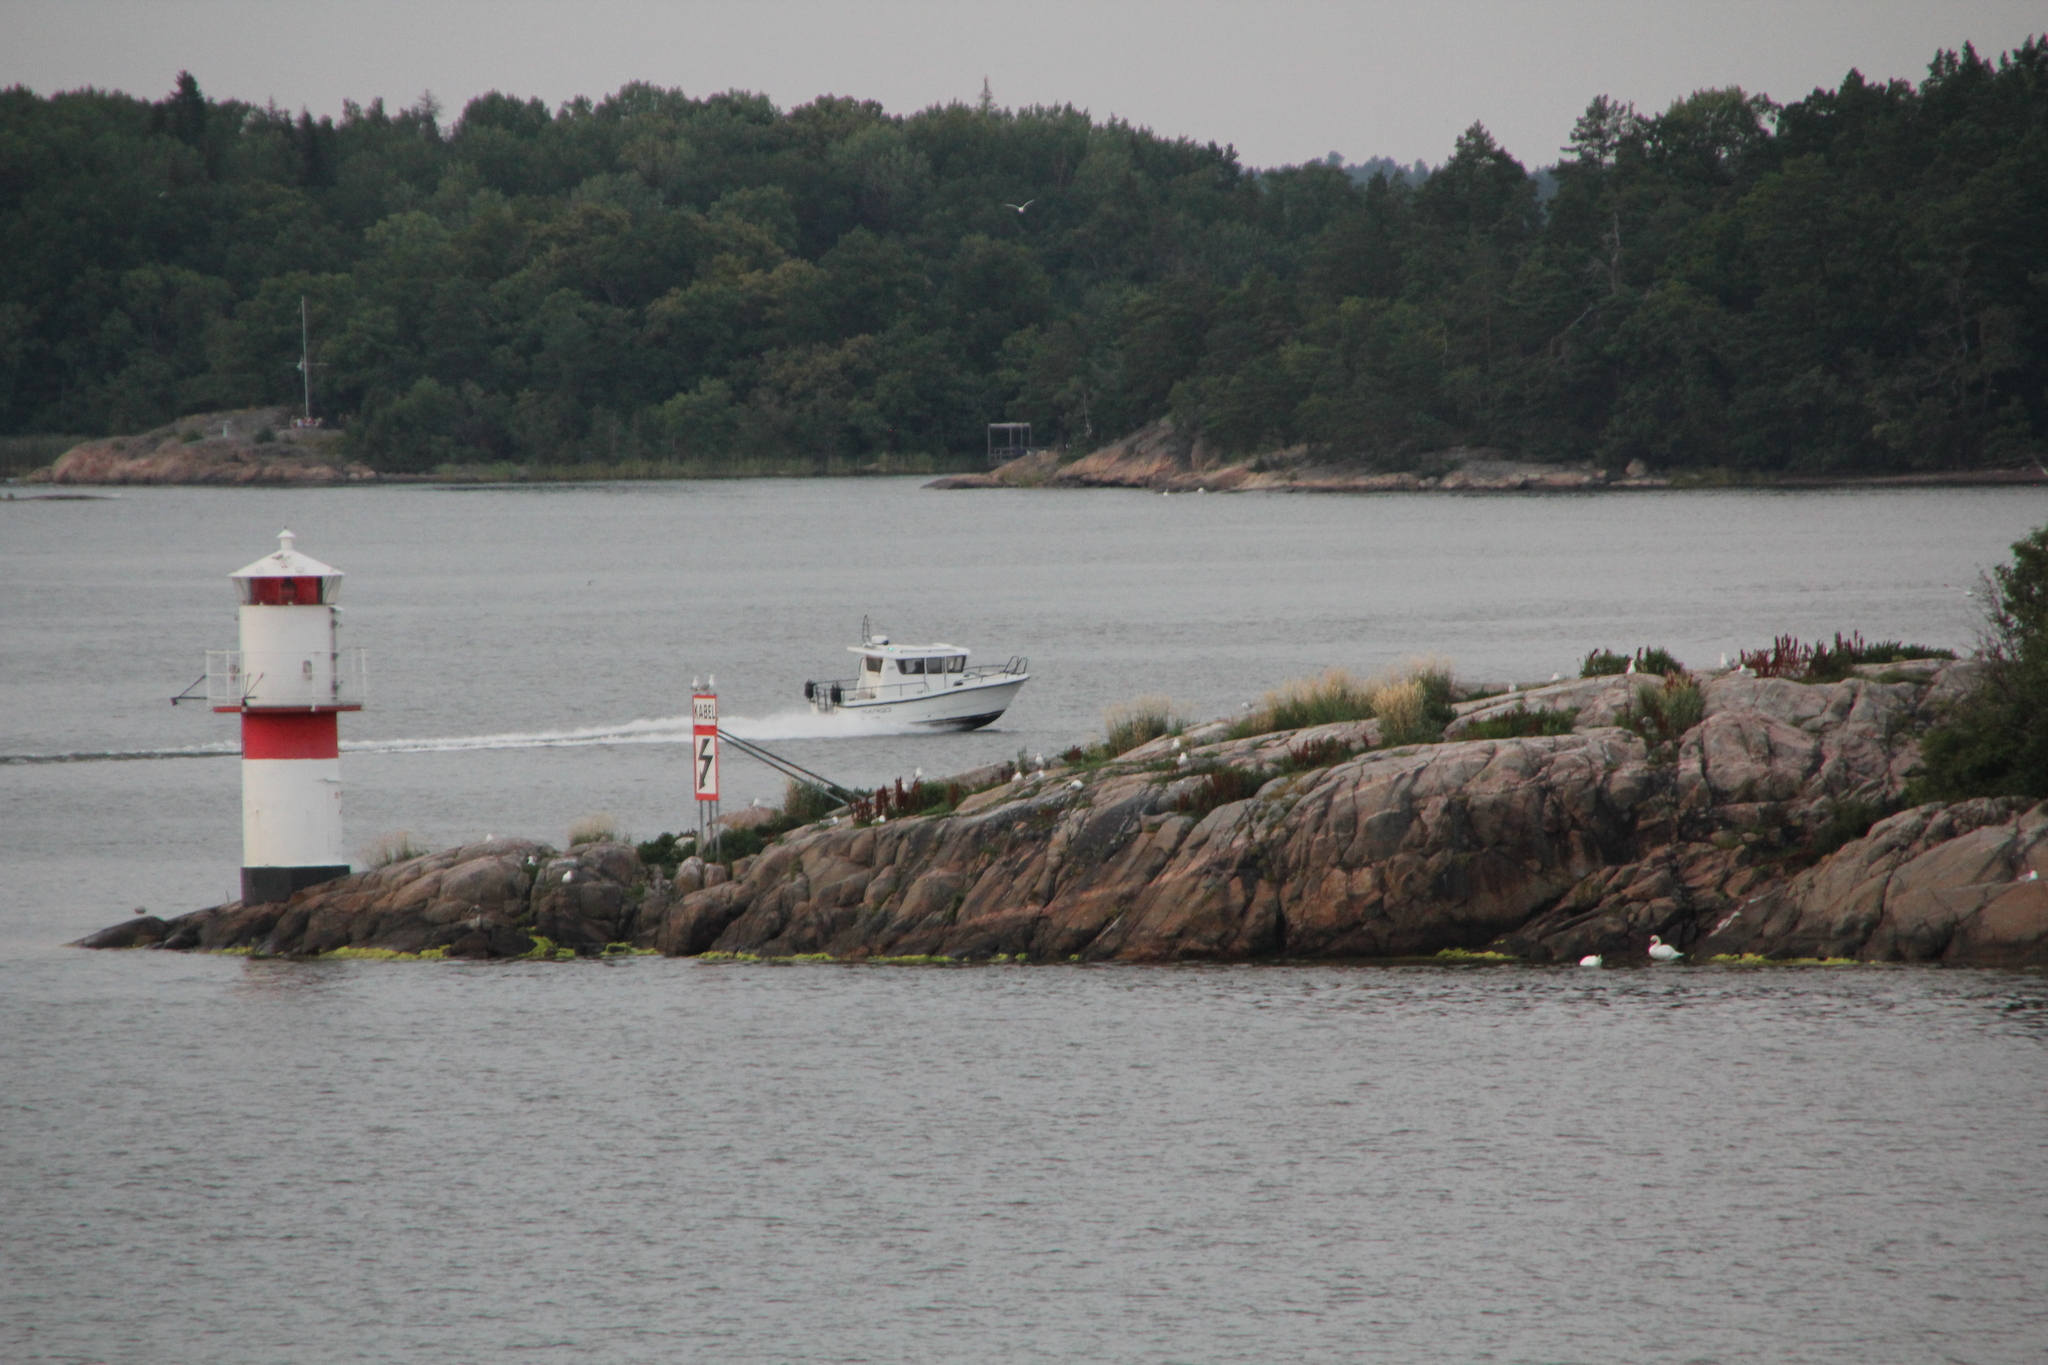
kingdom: Animalia
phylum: Chordata
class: Aves
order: Anseriformes
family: Anatidae
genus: Cygnus
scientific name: Cygnus olor
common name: Mute swan
